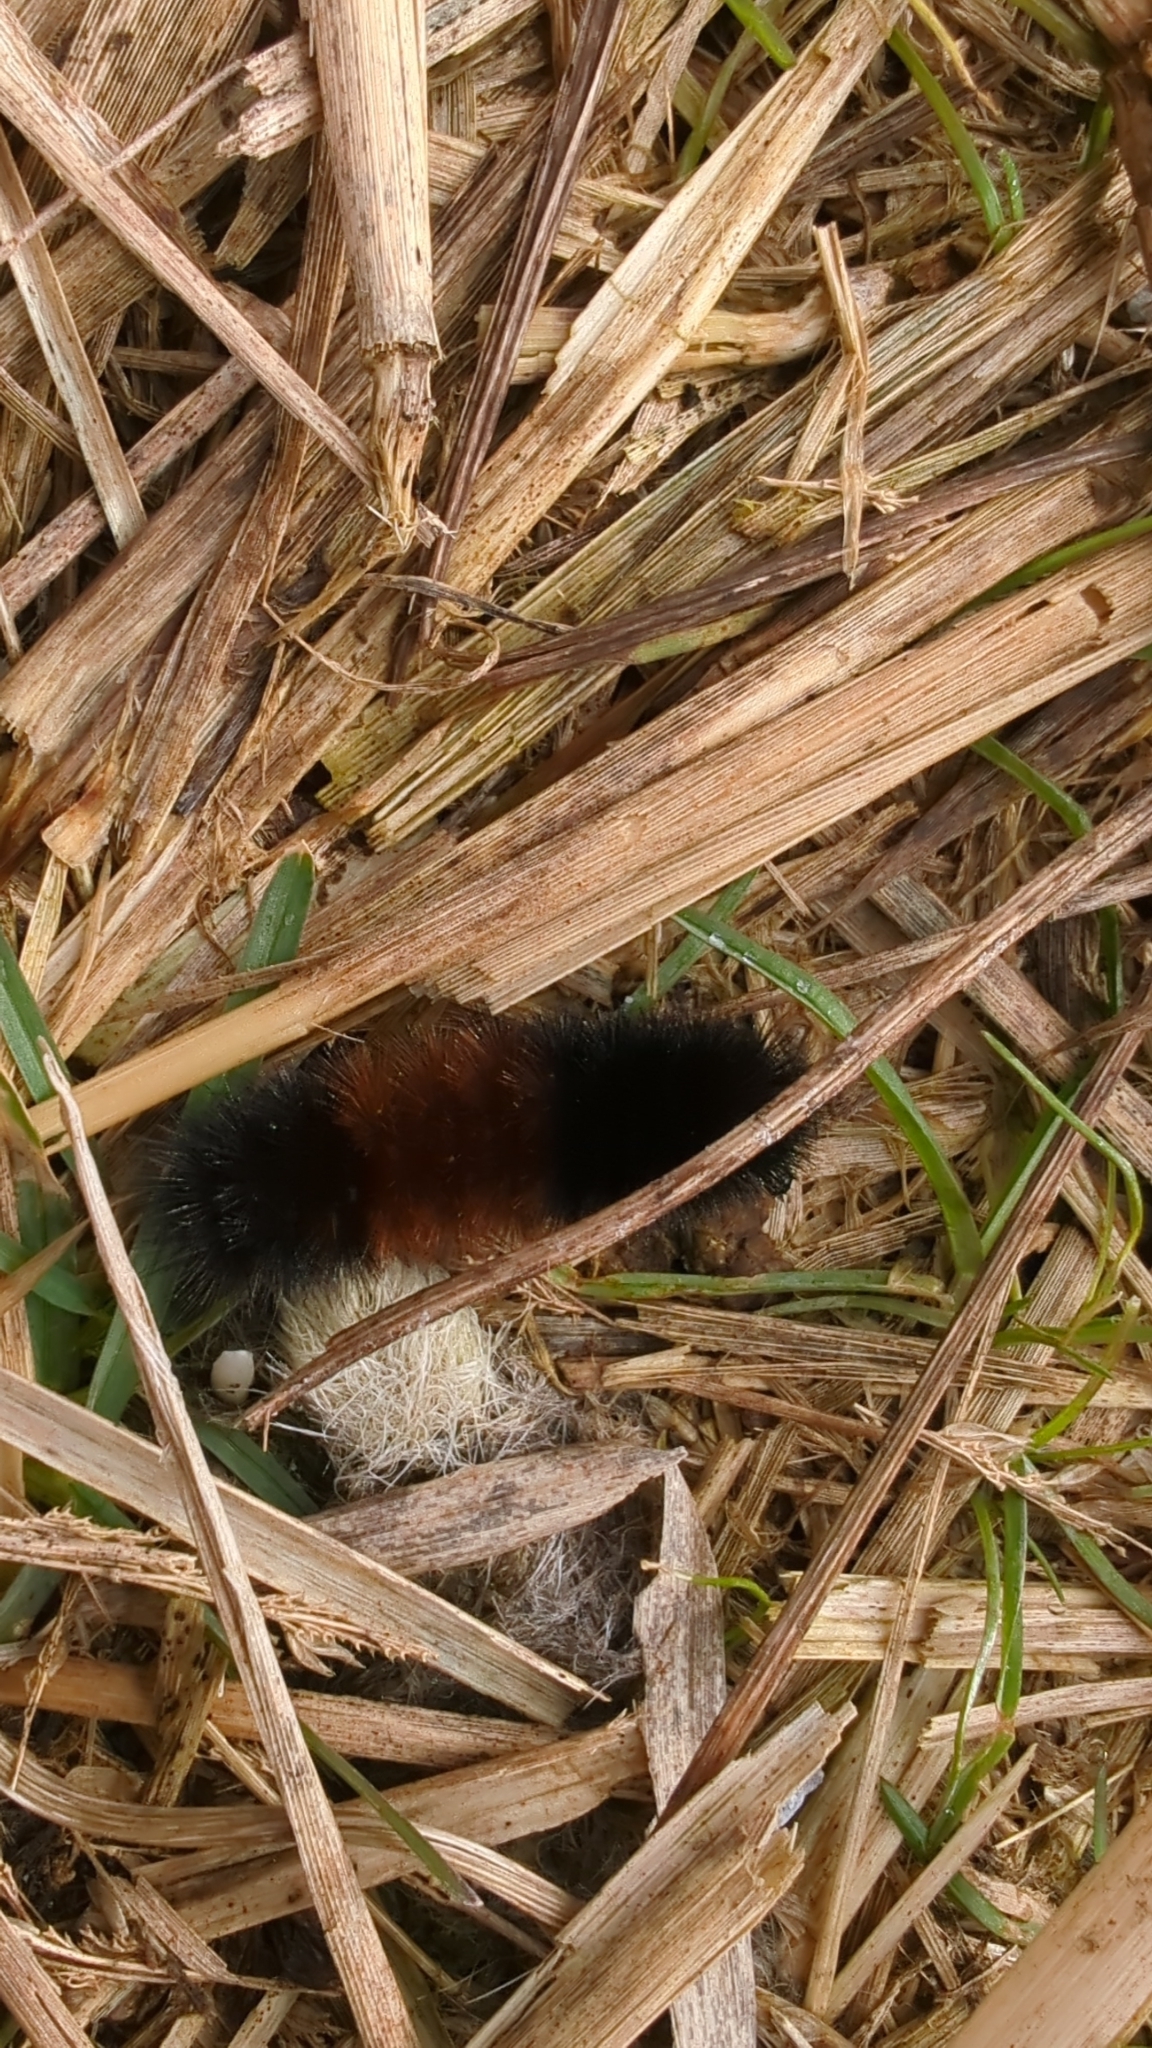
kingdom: Animalia
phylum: Arthropoda
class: Insecta
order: Lepidoptera
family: Erebidae
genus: Pyrrharctia
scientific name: Pyrrharctia isabella
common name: Isabella tiger moth
